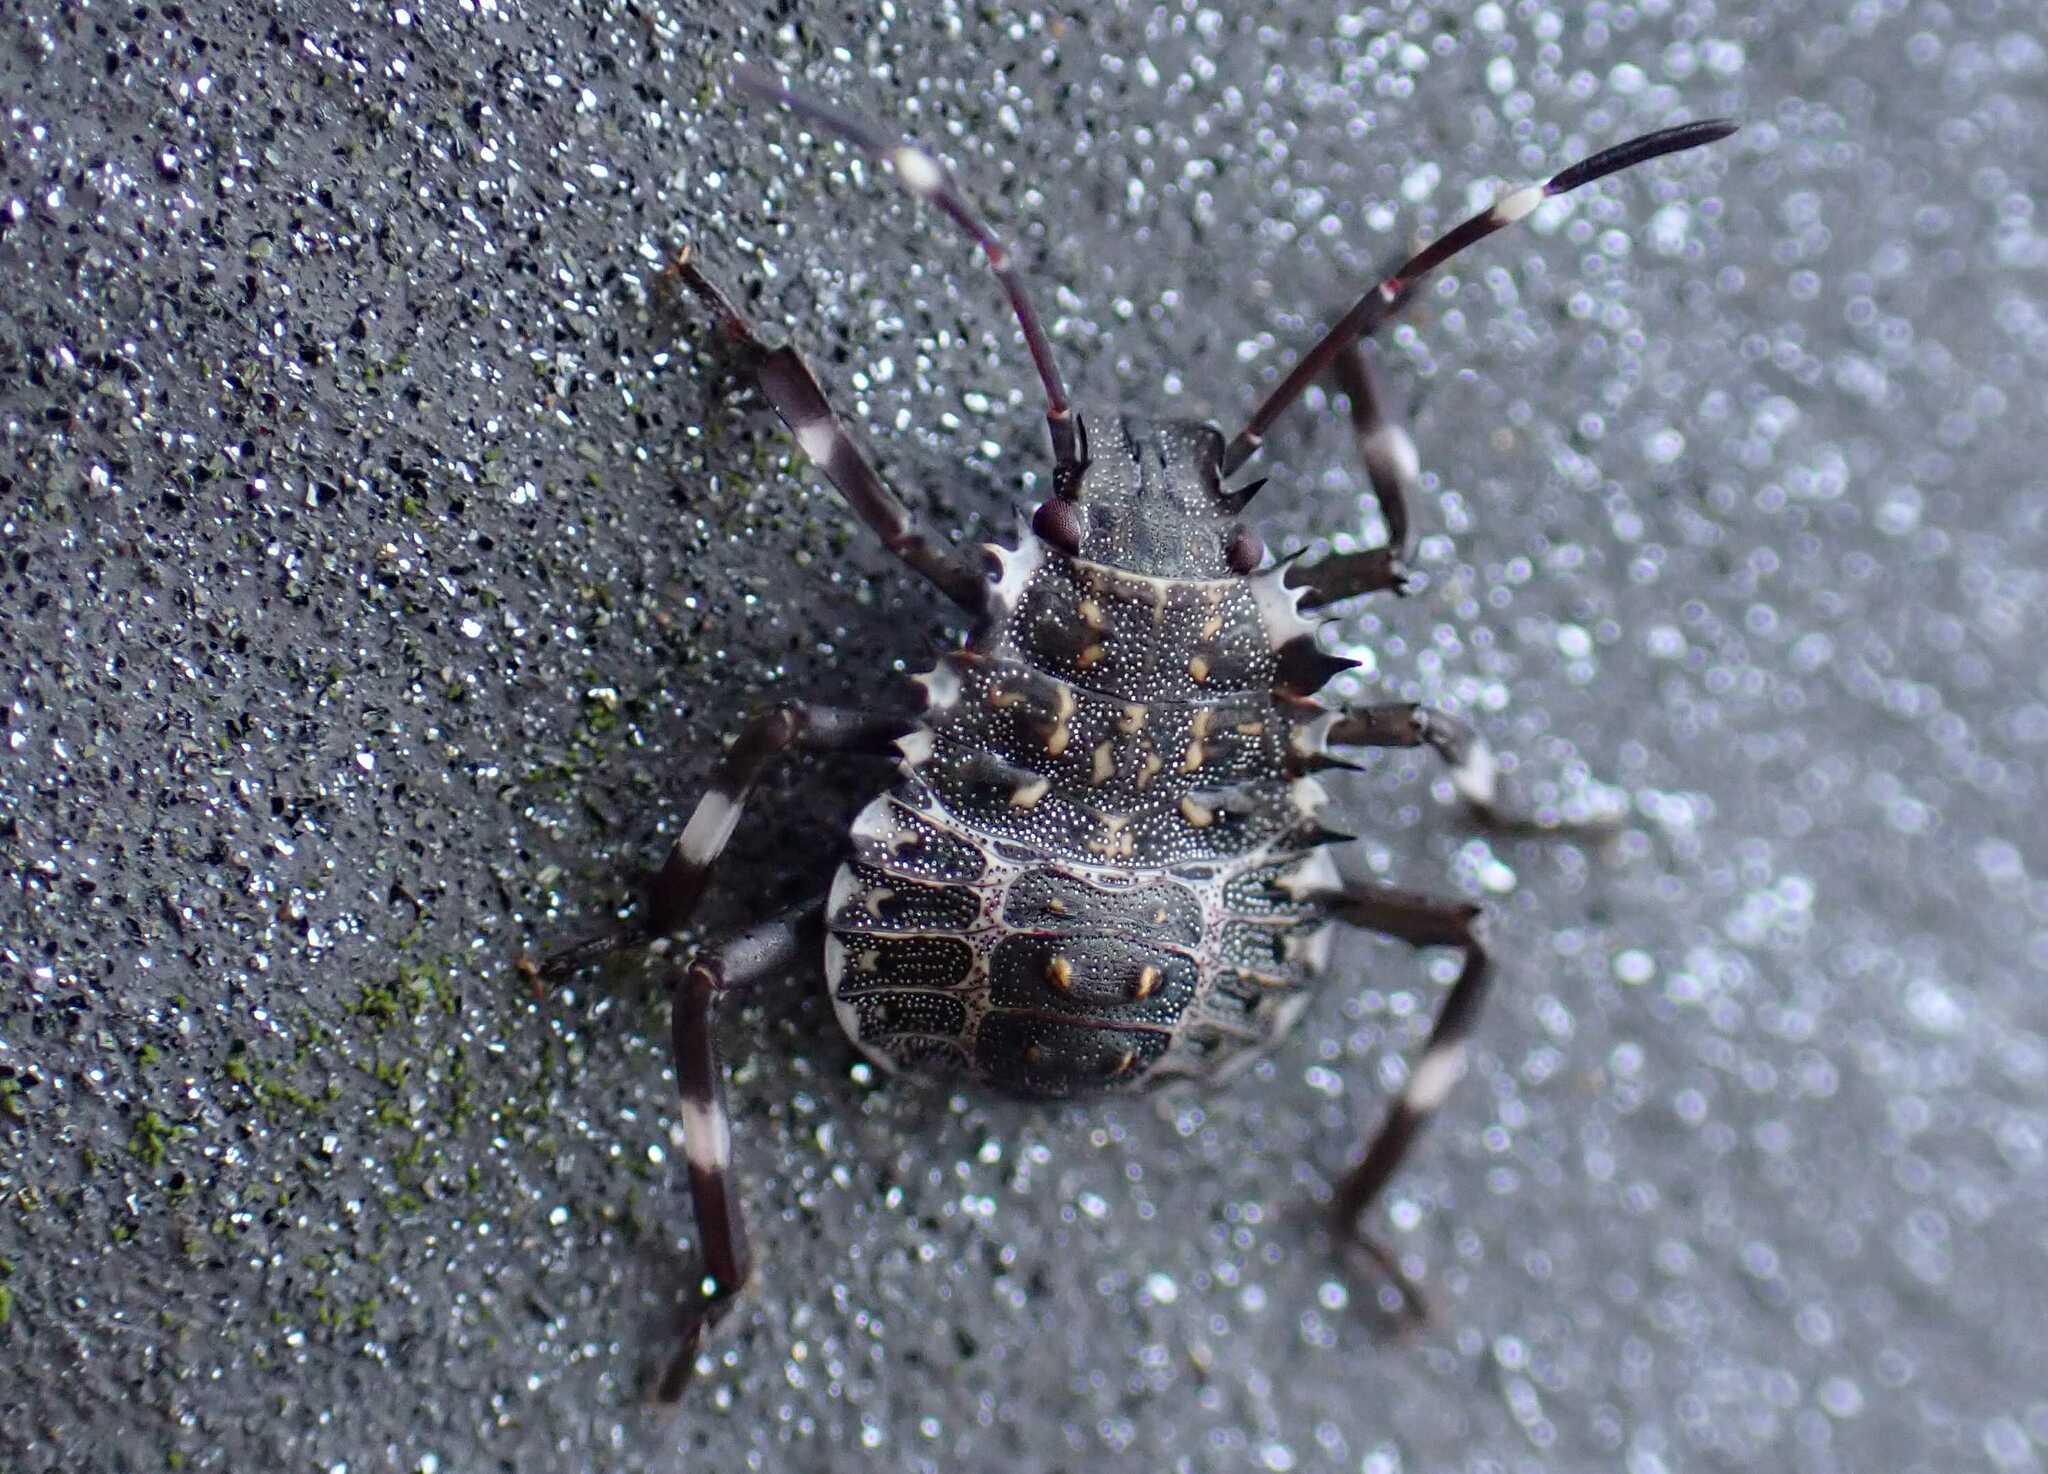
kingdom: Animalia
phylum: Arthropoda
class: Insecta
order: Hemiptera
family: Pentatomidae
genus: Halyomorpha
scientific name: Halyomorpha halys
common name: Brown marmorated stink bug
